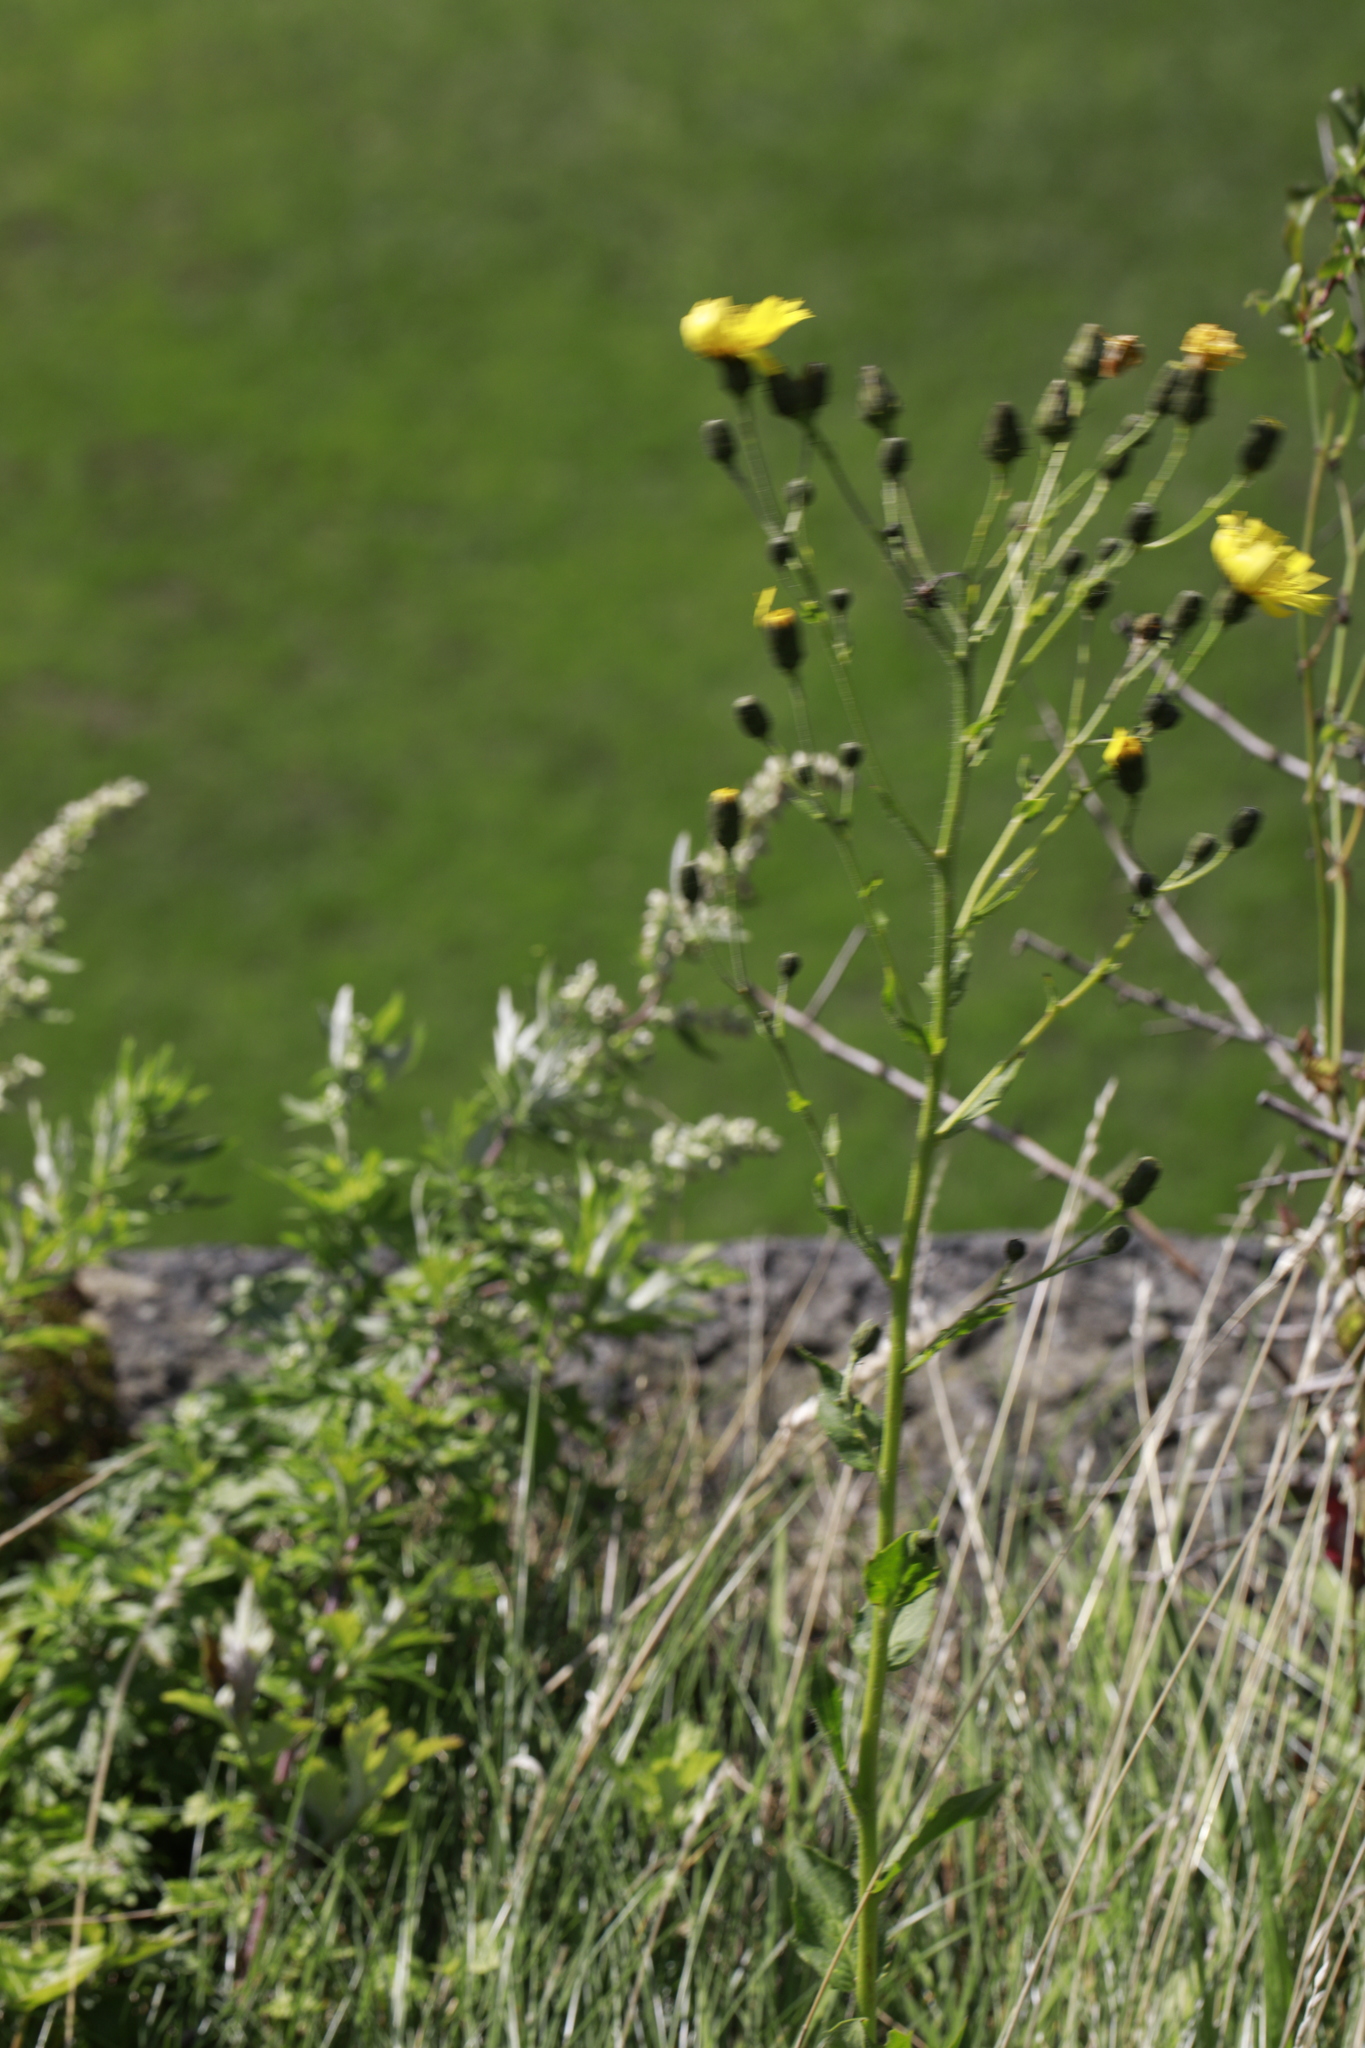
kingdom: Plantae
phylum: Tracheophyta
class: Magnoliopsida
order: Asterales
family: Asteraceae
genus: Sonchus
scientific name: Sonchus arvensis
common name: Perennial sow-thistle
